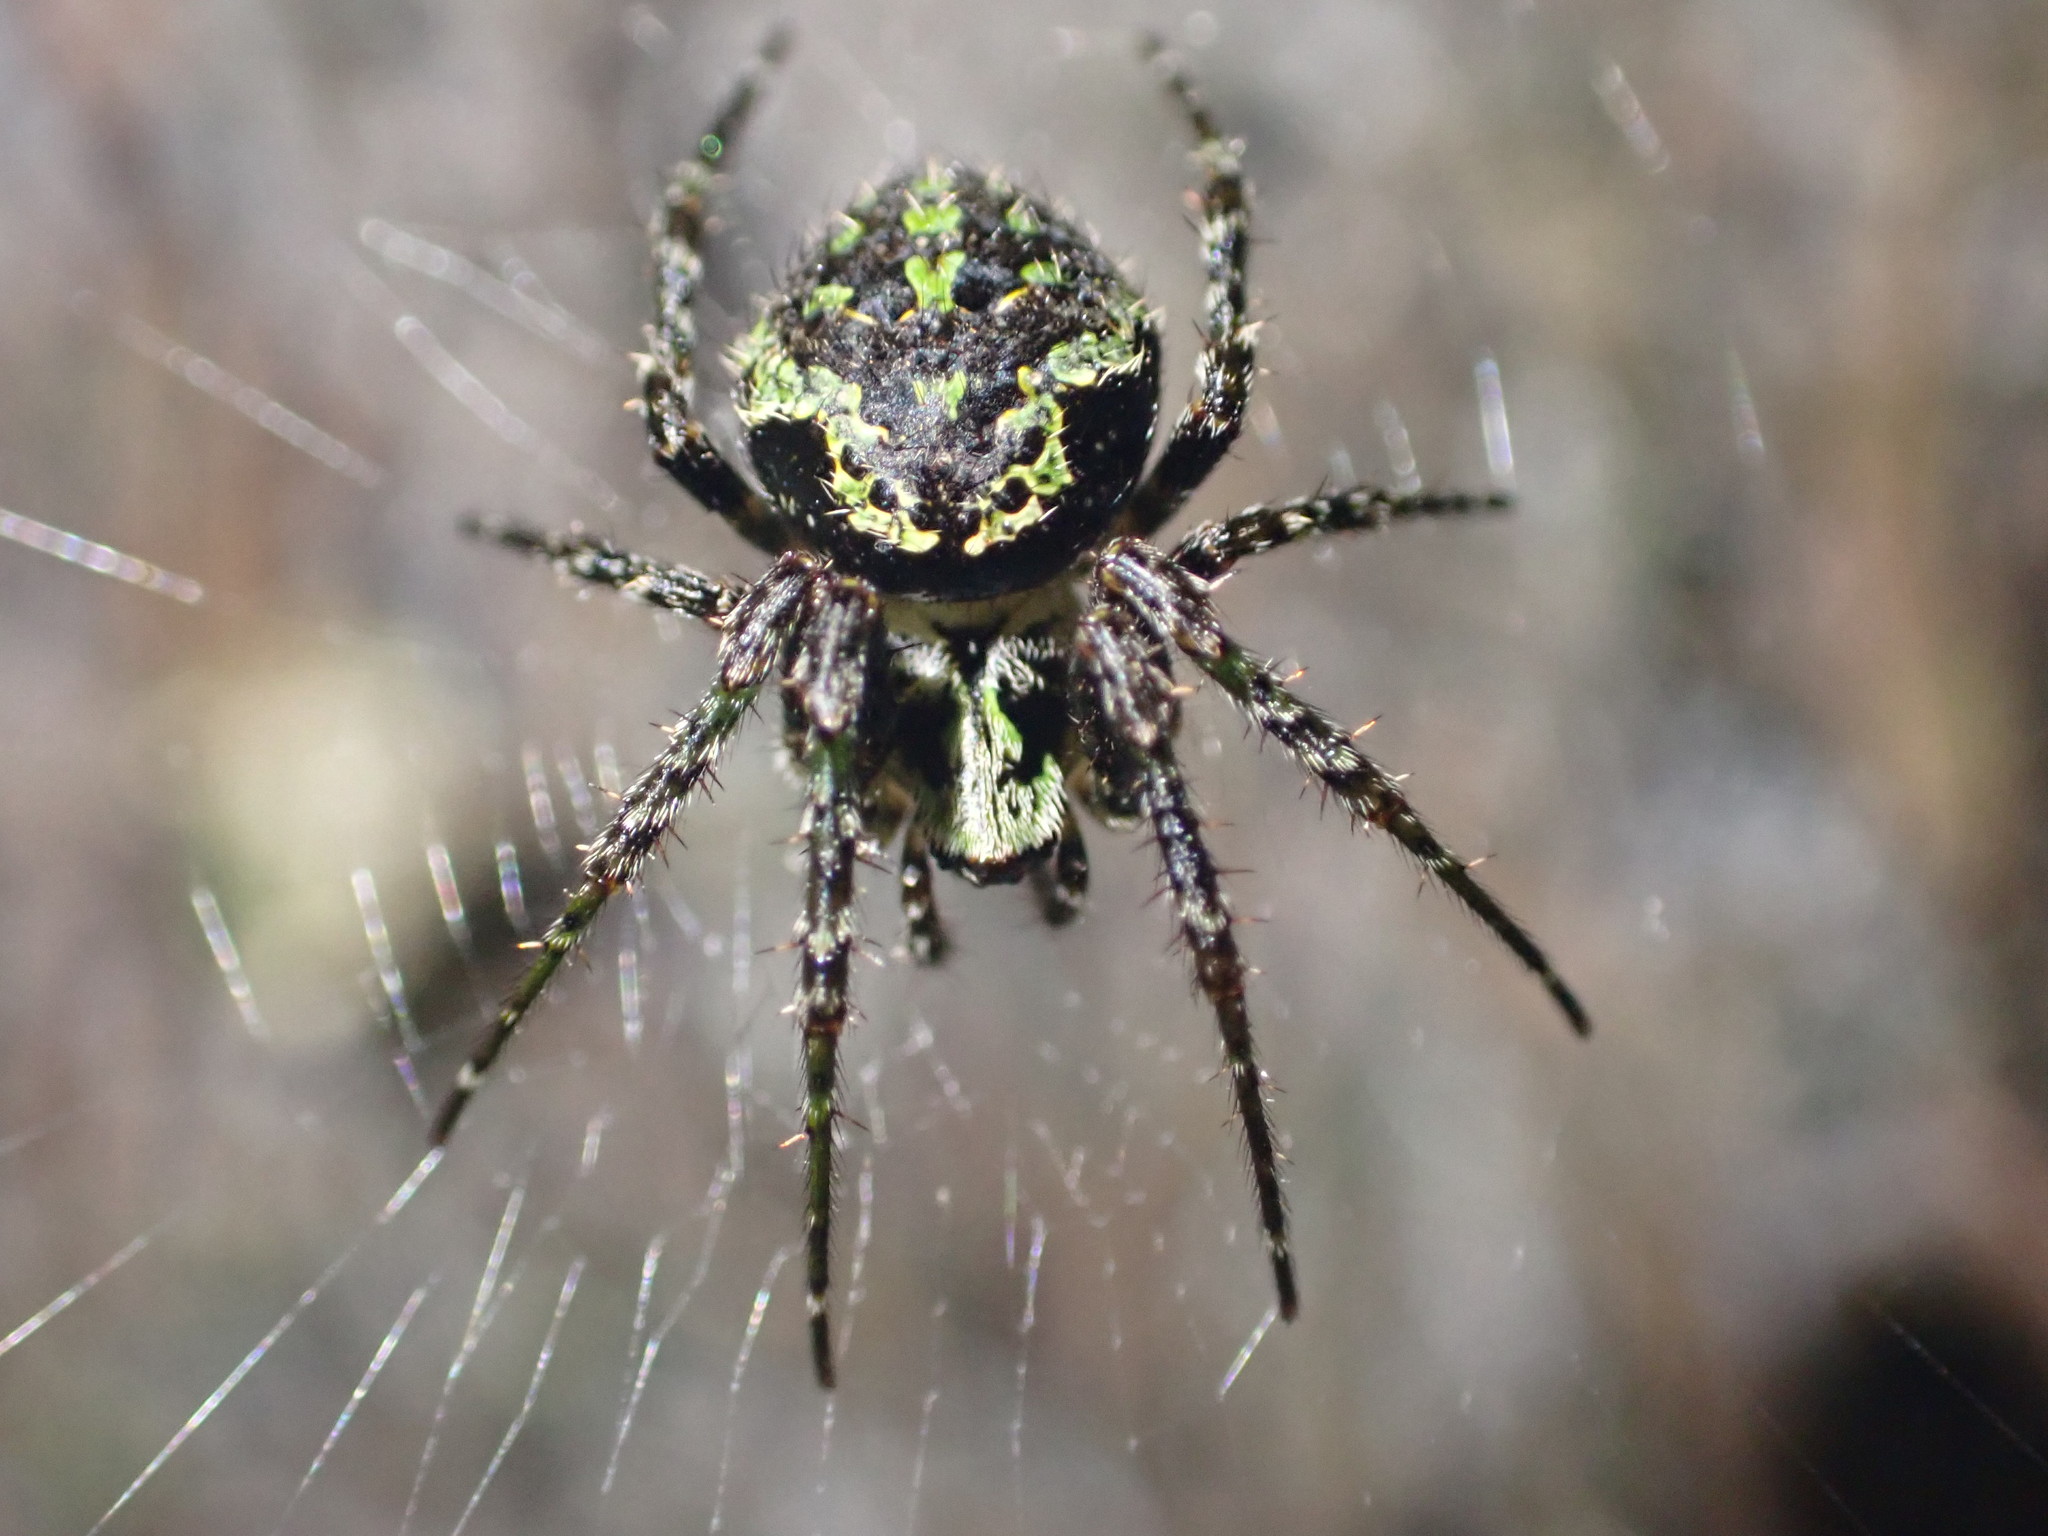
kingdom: Animalia
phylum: Arthropoda
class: Arachnida
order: Araneae
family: Araneidae
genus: Cryptaranea
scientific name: Cryptaranea atrihastula
